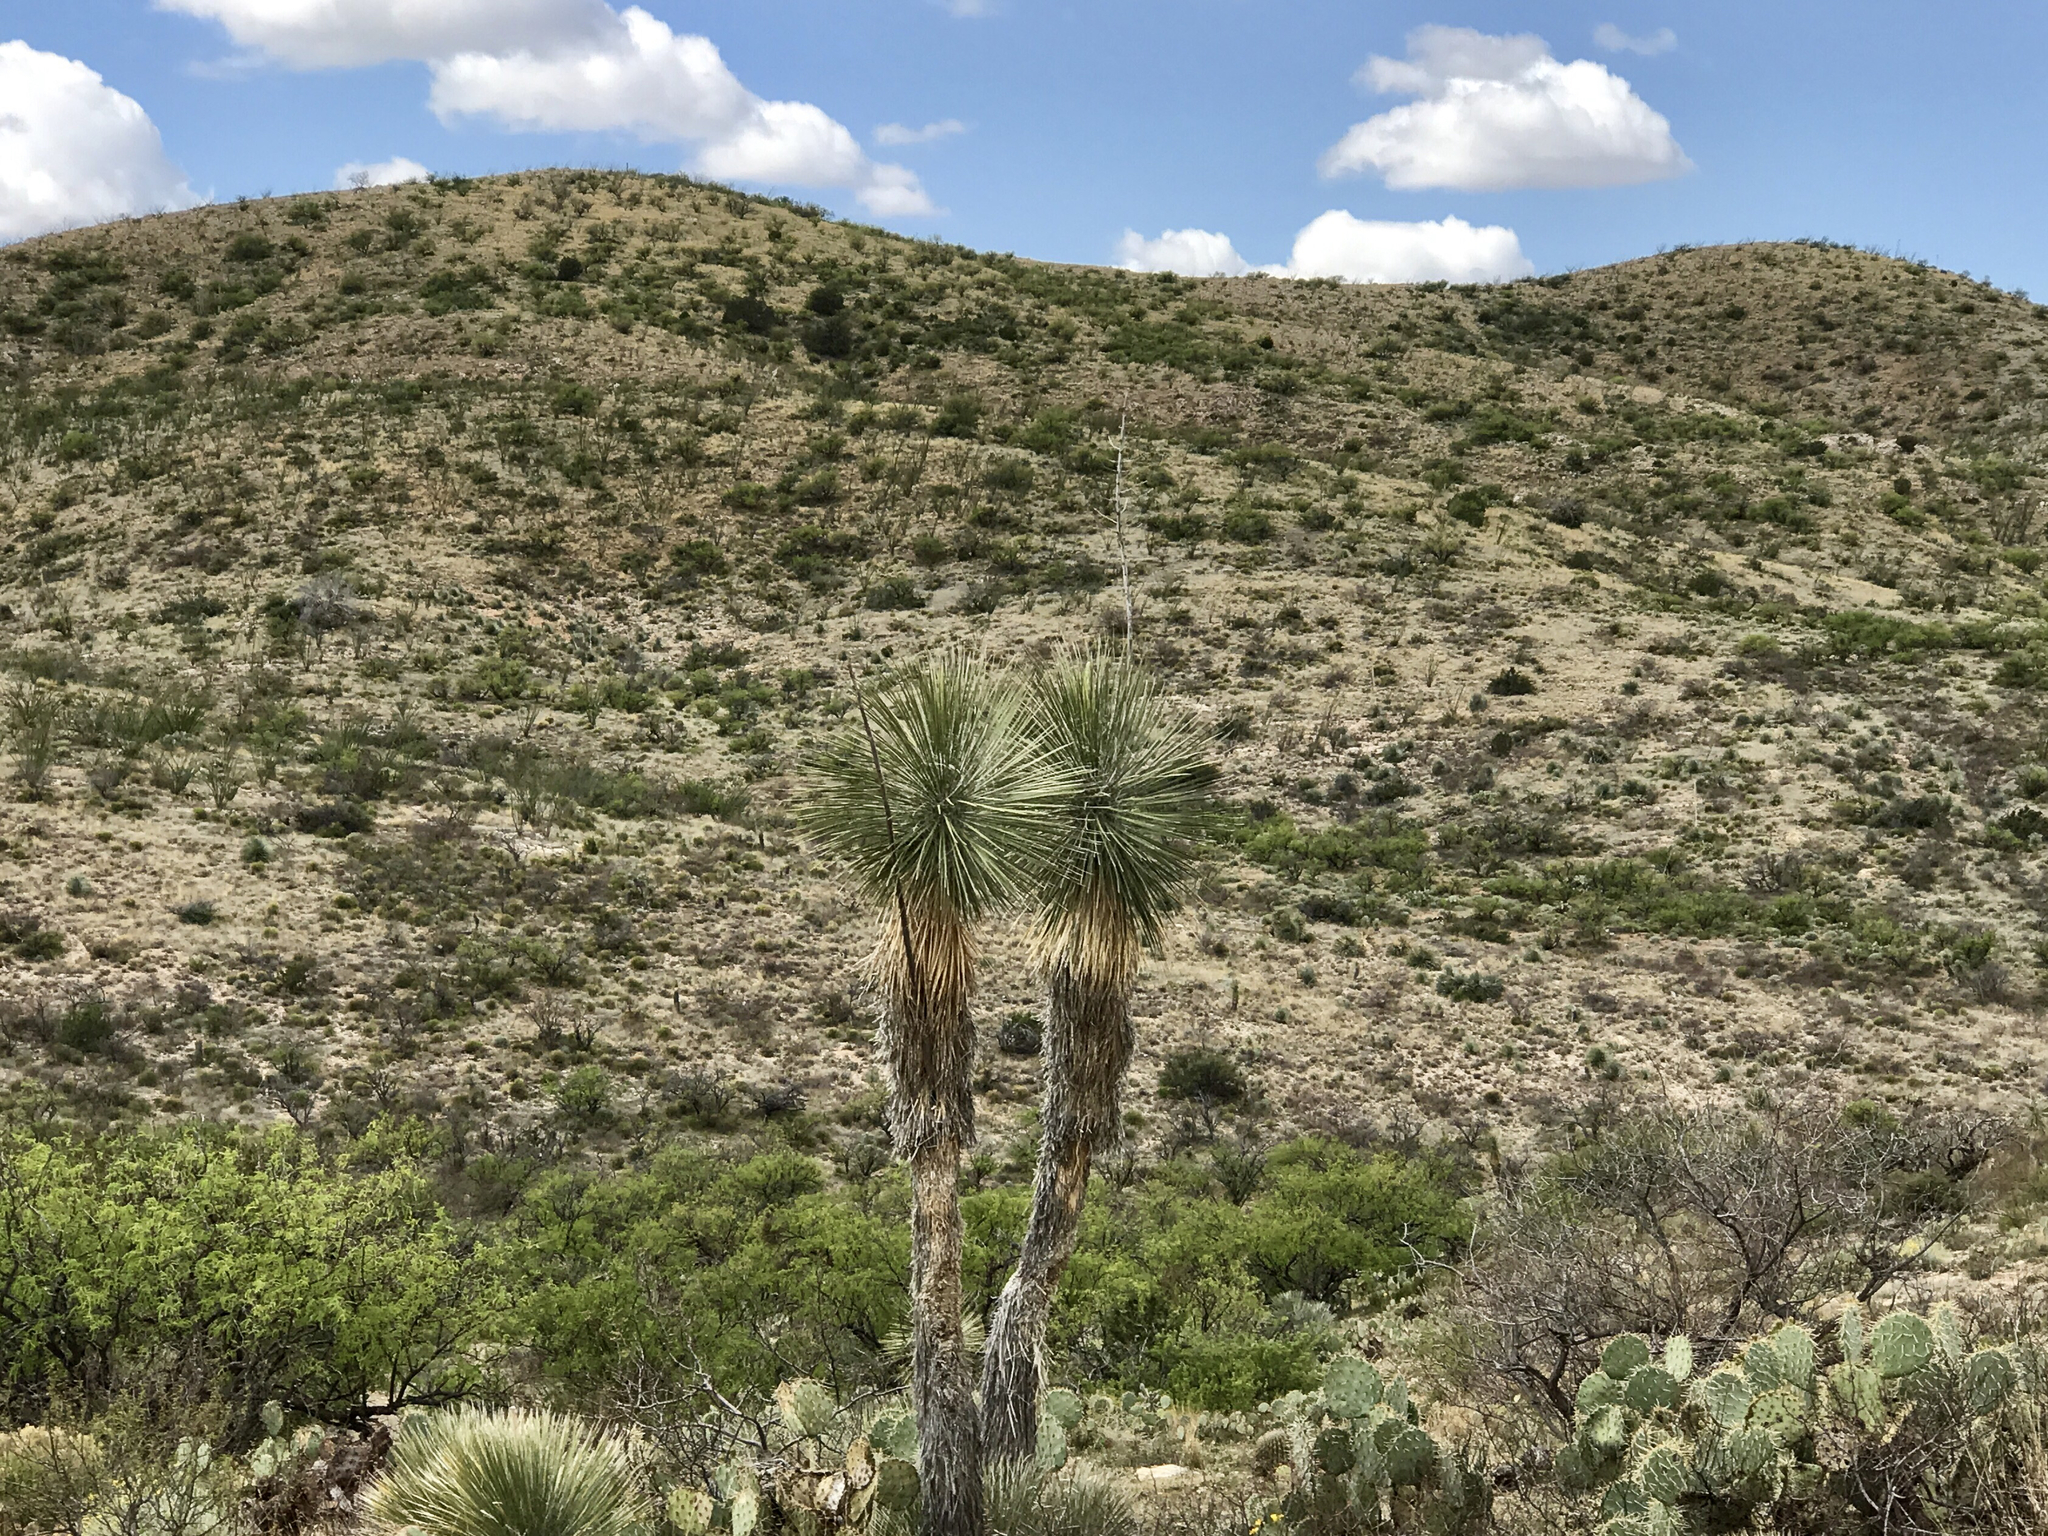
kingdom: Plantae
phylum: Tracheophyta
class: Liliopsida
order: Asparagales
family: Asparagaceae
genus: Yucca
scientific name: Yucca elata
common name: Palmella
